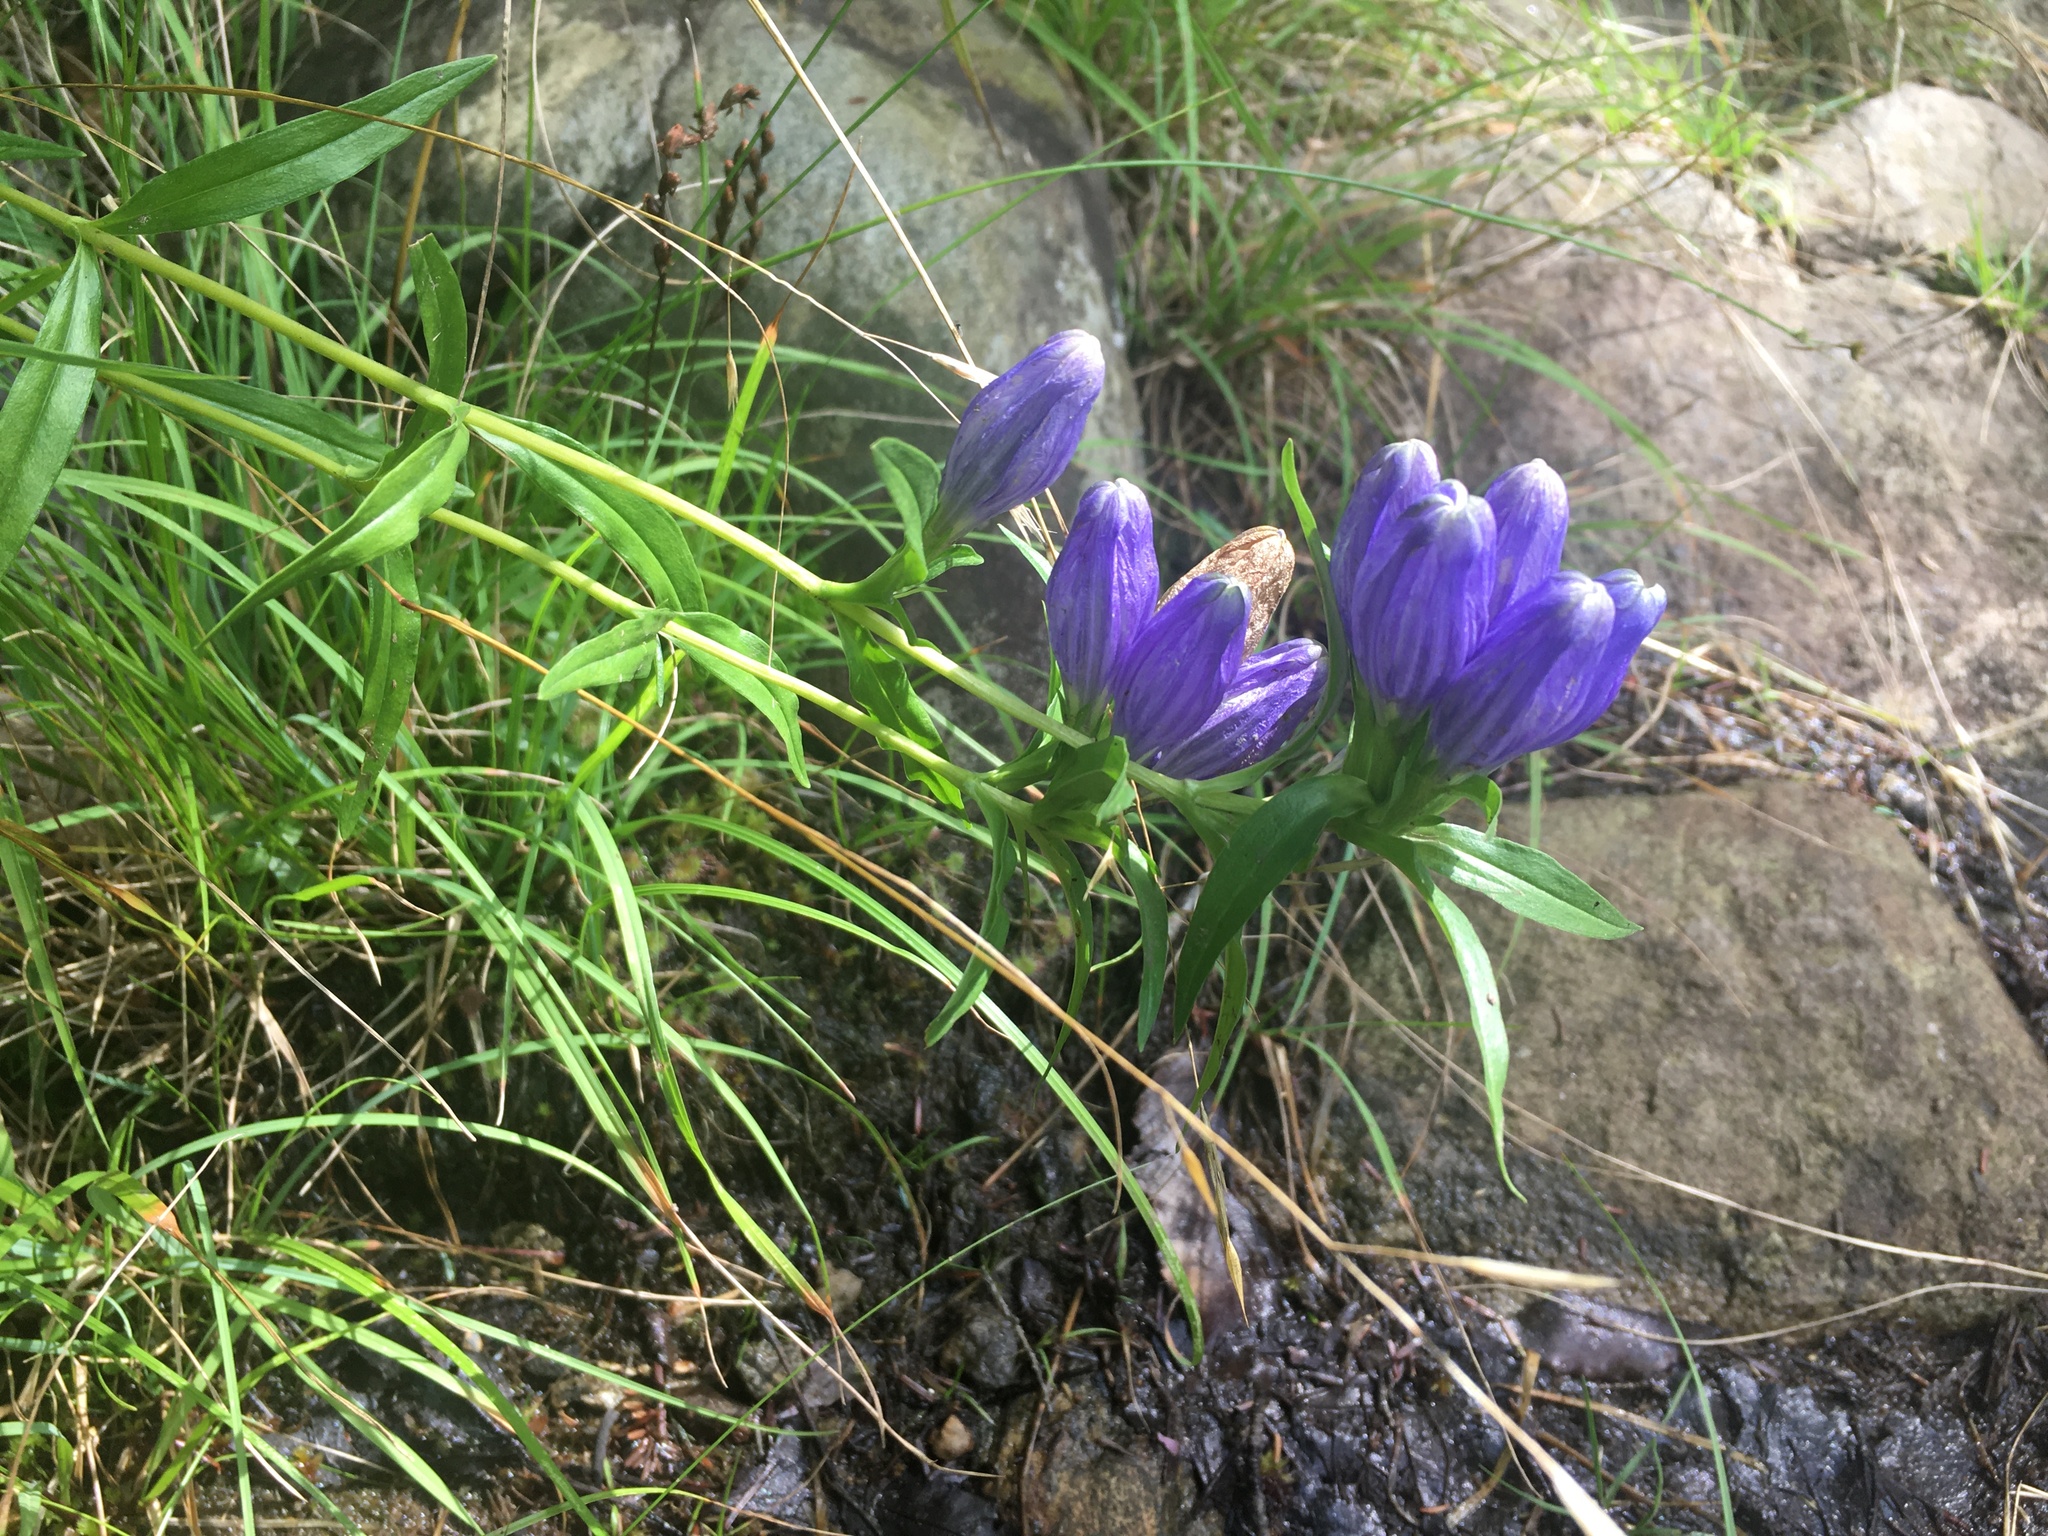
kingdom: Plantae
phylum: Tracheophyta
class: Magnoliopsida
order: Gentianales
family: Gentianaceae
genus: Gentiana
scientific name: Gentiana linearis
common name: Bastard gentian
